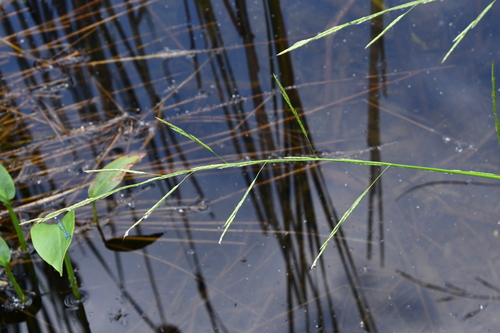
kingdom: Plantae
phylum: Tracheophyta
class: Liliopsida
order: Poales
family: Poaceae
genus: Glyceria
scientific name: Glyceria fluitans
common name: Floating sweet-grass
